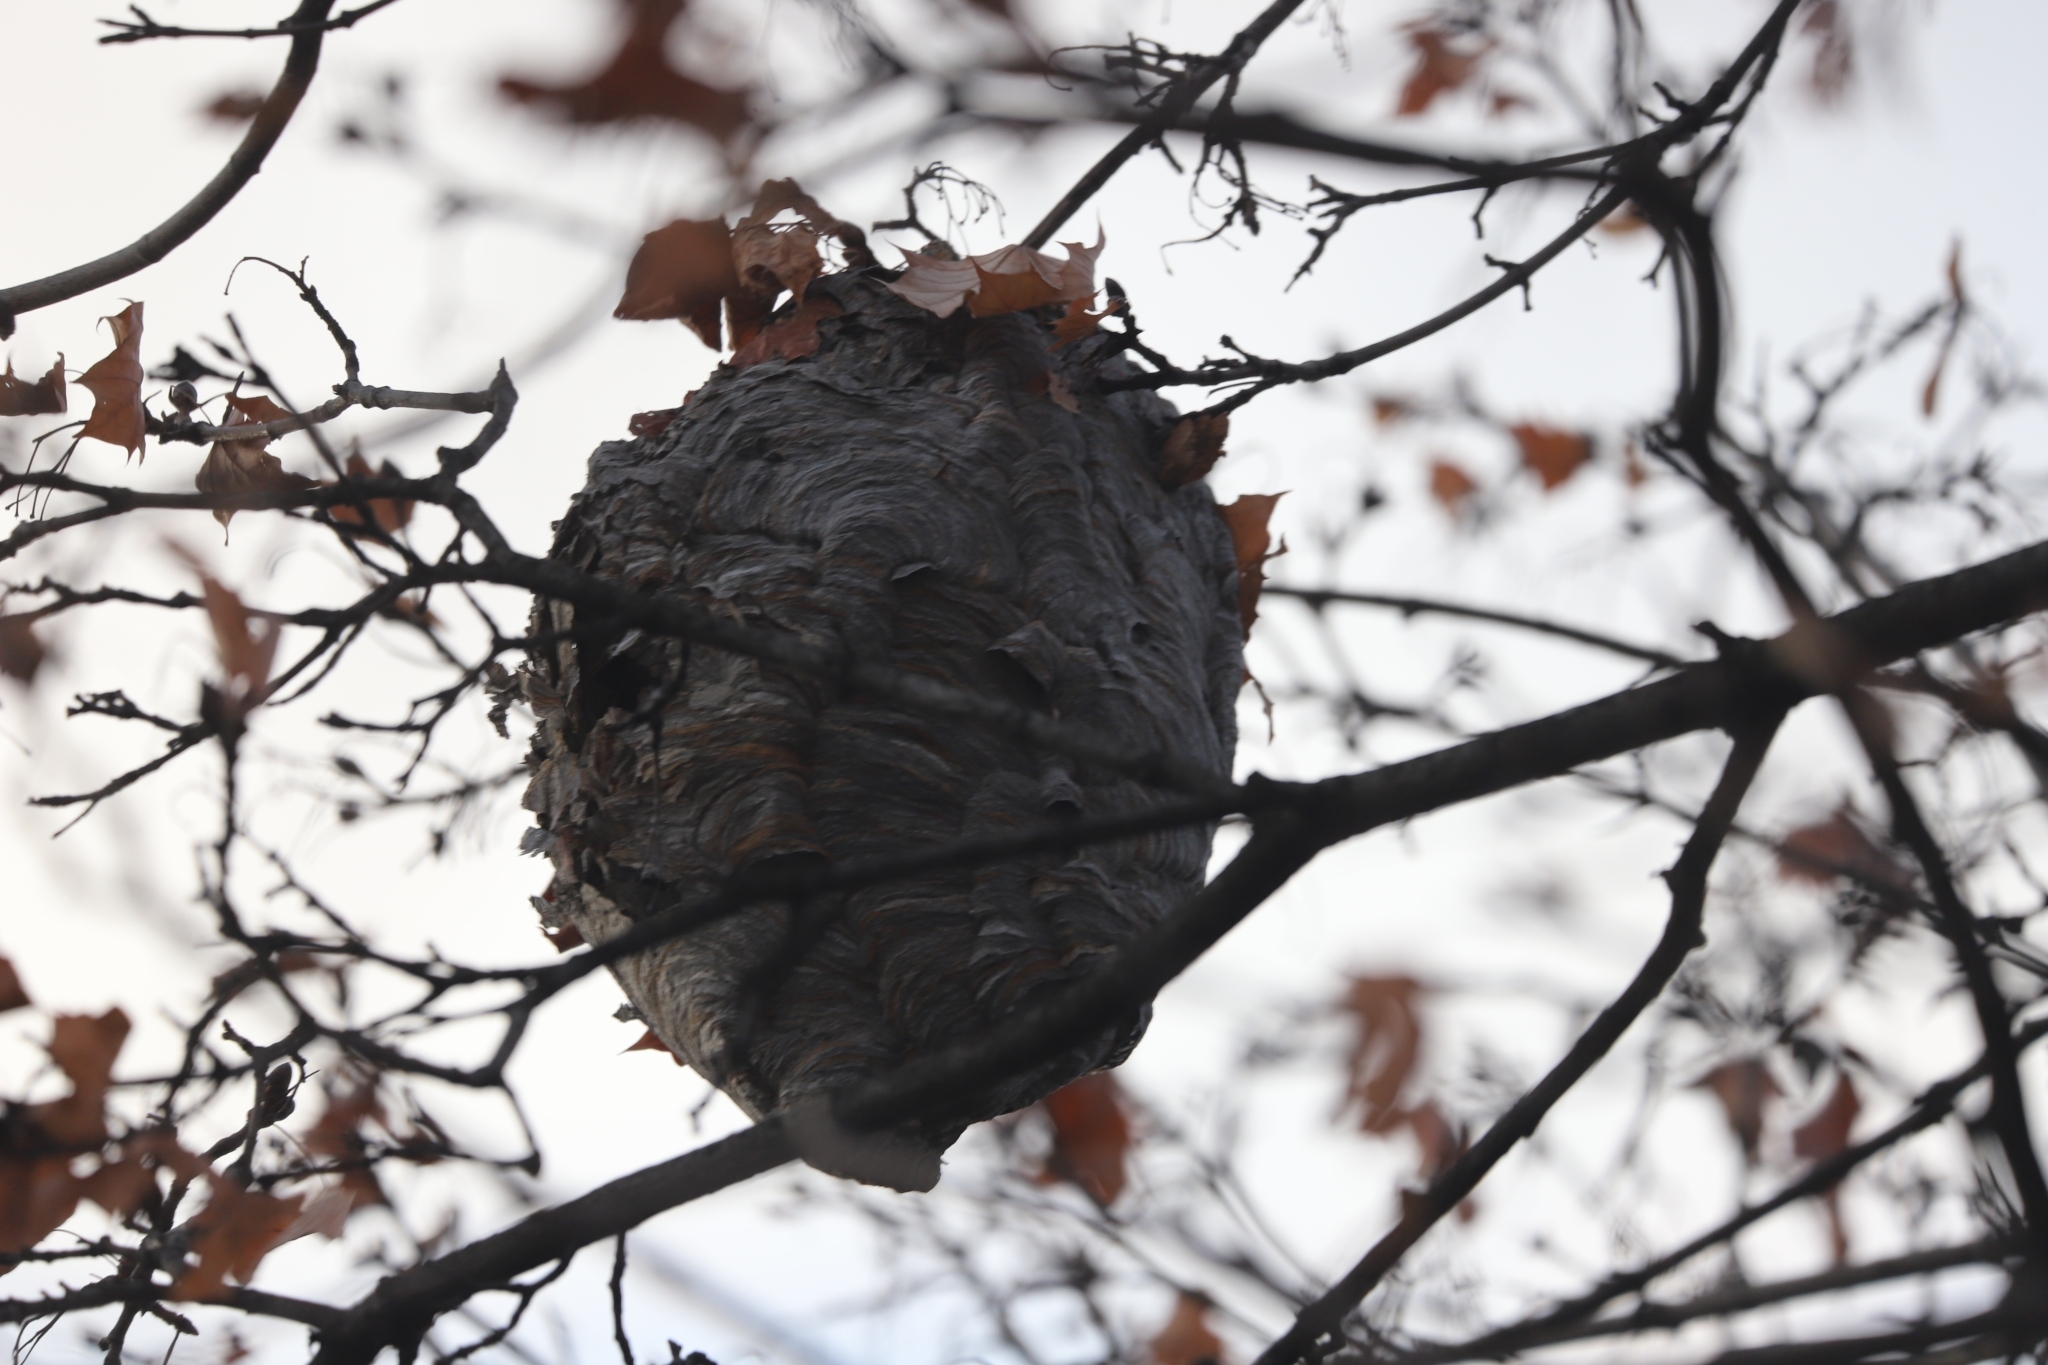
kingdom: Animalia
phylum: Arthropoda
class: Insecta
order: Hymenoptera
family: Vespidae
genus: Dolichovespula
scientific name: Dolichovespula maculata
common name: Bald-faced hornet
